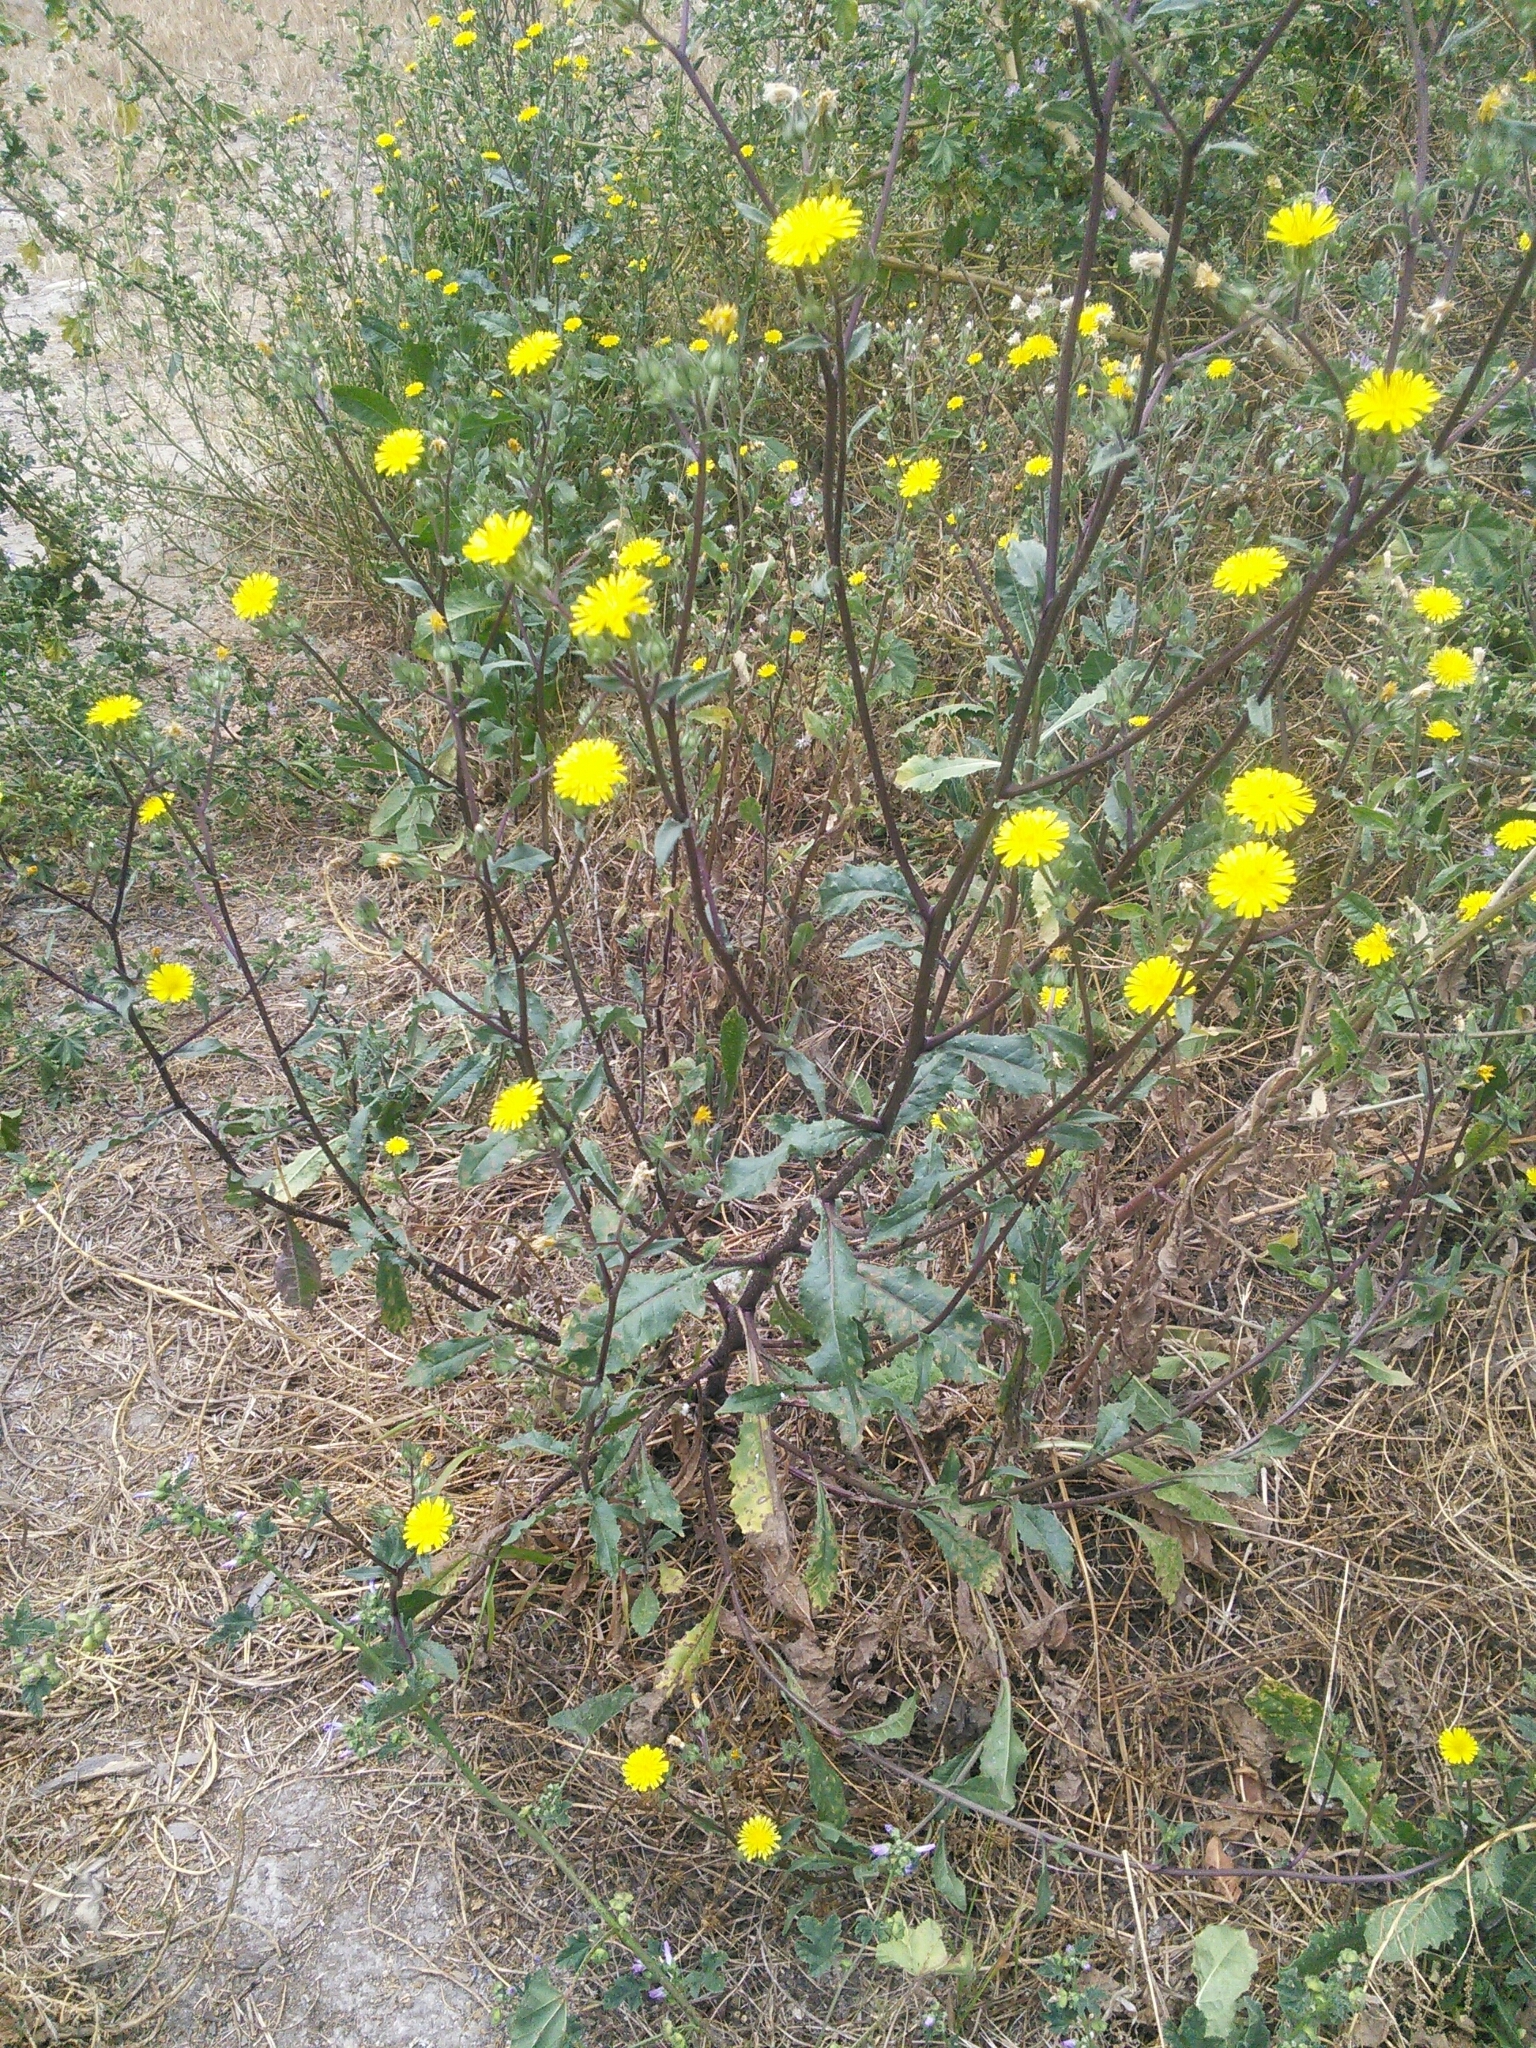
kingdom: Plantae
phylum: Tracheophyta
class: Magnoliopsida
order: Asterales
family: Asteraceae
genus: Helminthotheca
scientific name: Helminthotheca echioides
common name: Ox-tongue
